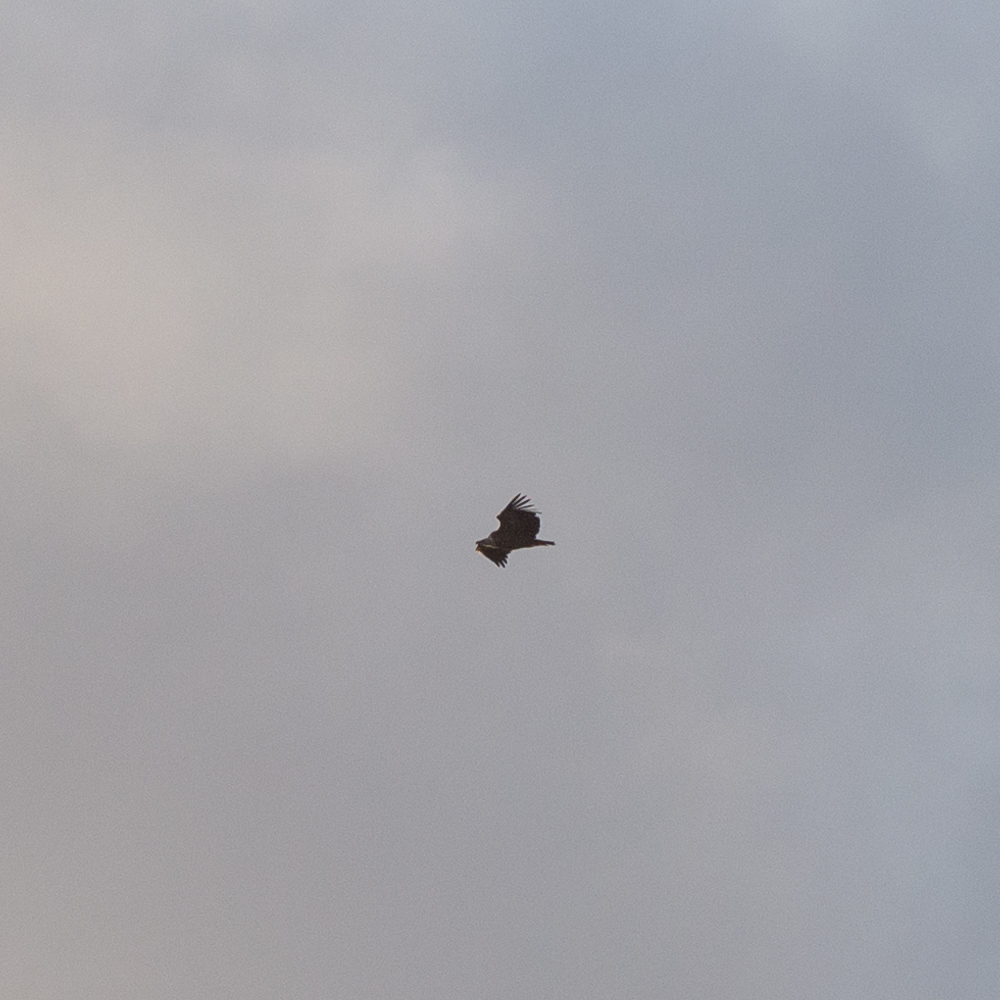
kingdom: Animalia
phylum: Chordata
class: Aves
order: Accipitriformes
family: Accipitridae
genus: Gyps
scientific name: Gyps fulvus
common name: Griffon vulture
